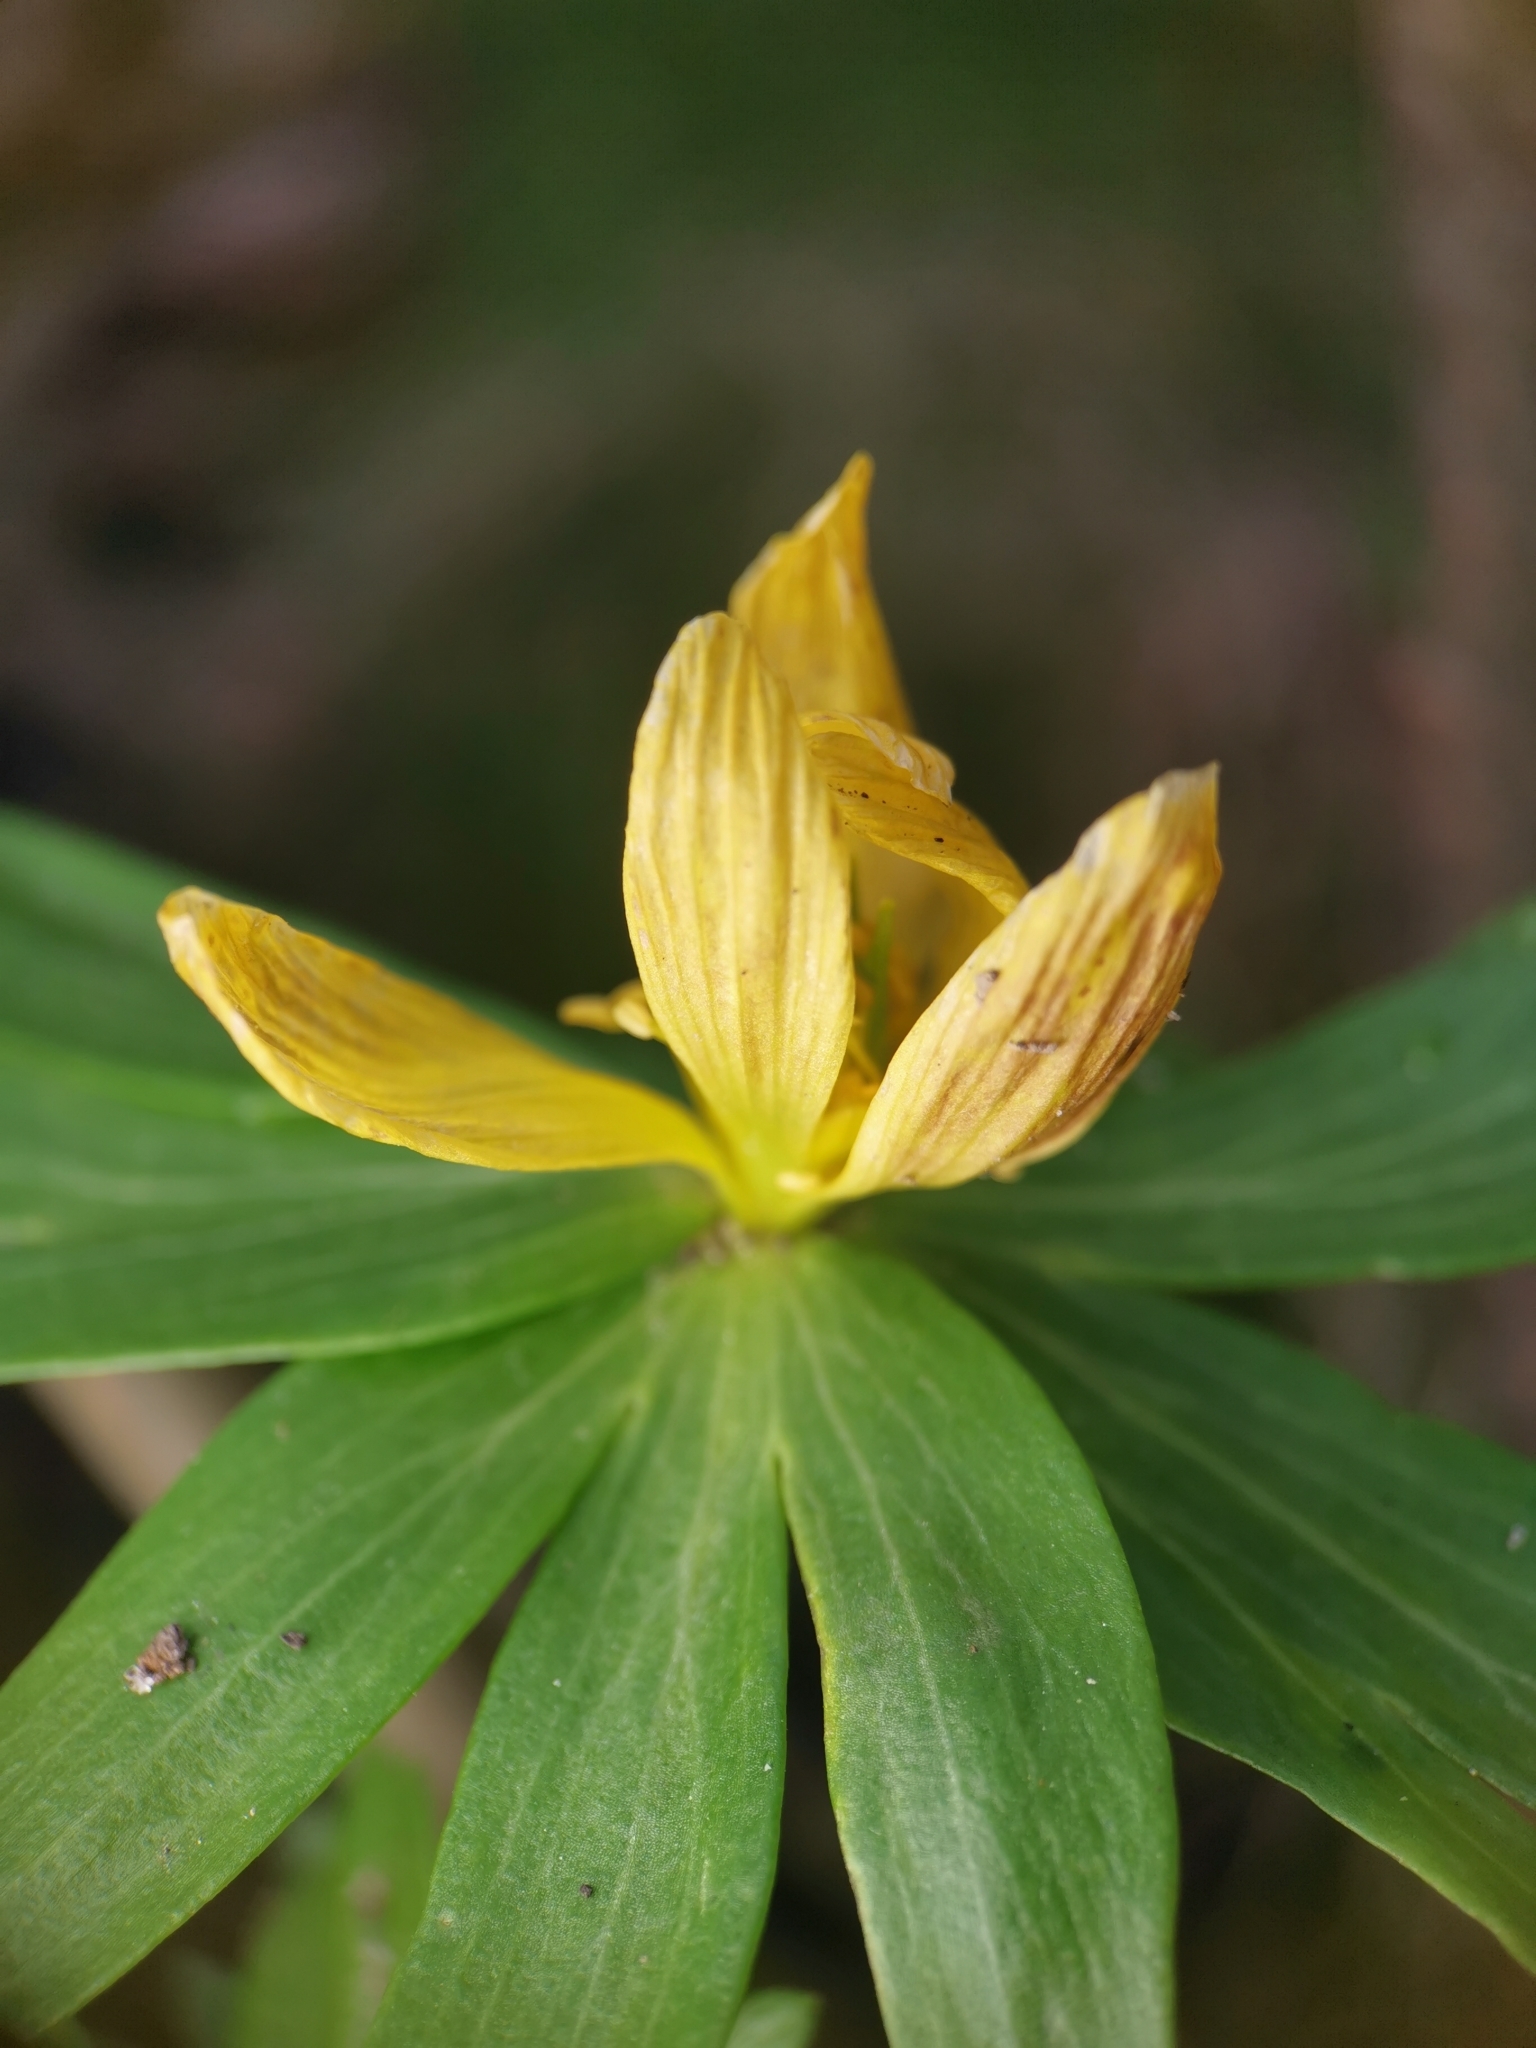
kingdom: Plantae
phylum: Tracheophyta
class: Magnoliopsida
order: Ranunculales
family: Ranunculaceae
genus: Eranthis
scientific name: Eranthis hyemalis
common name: Winter aconite
